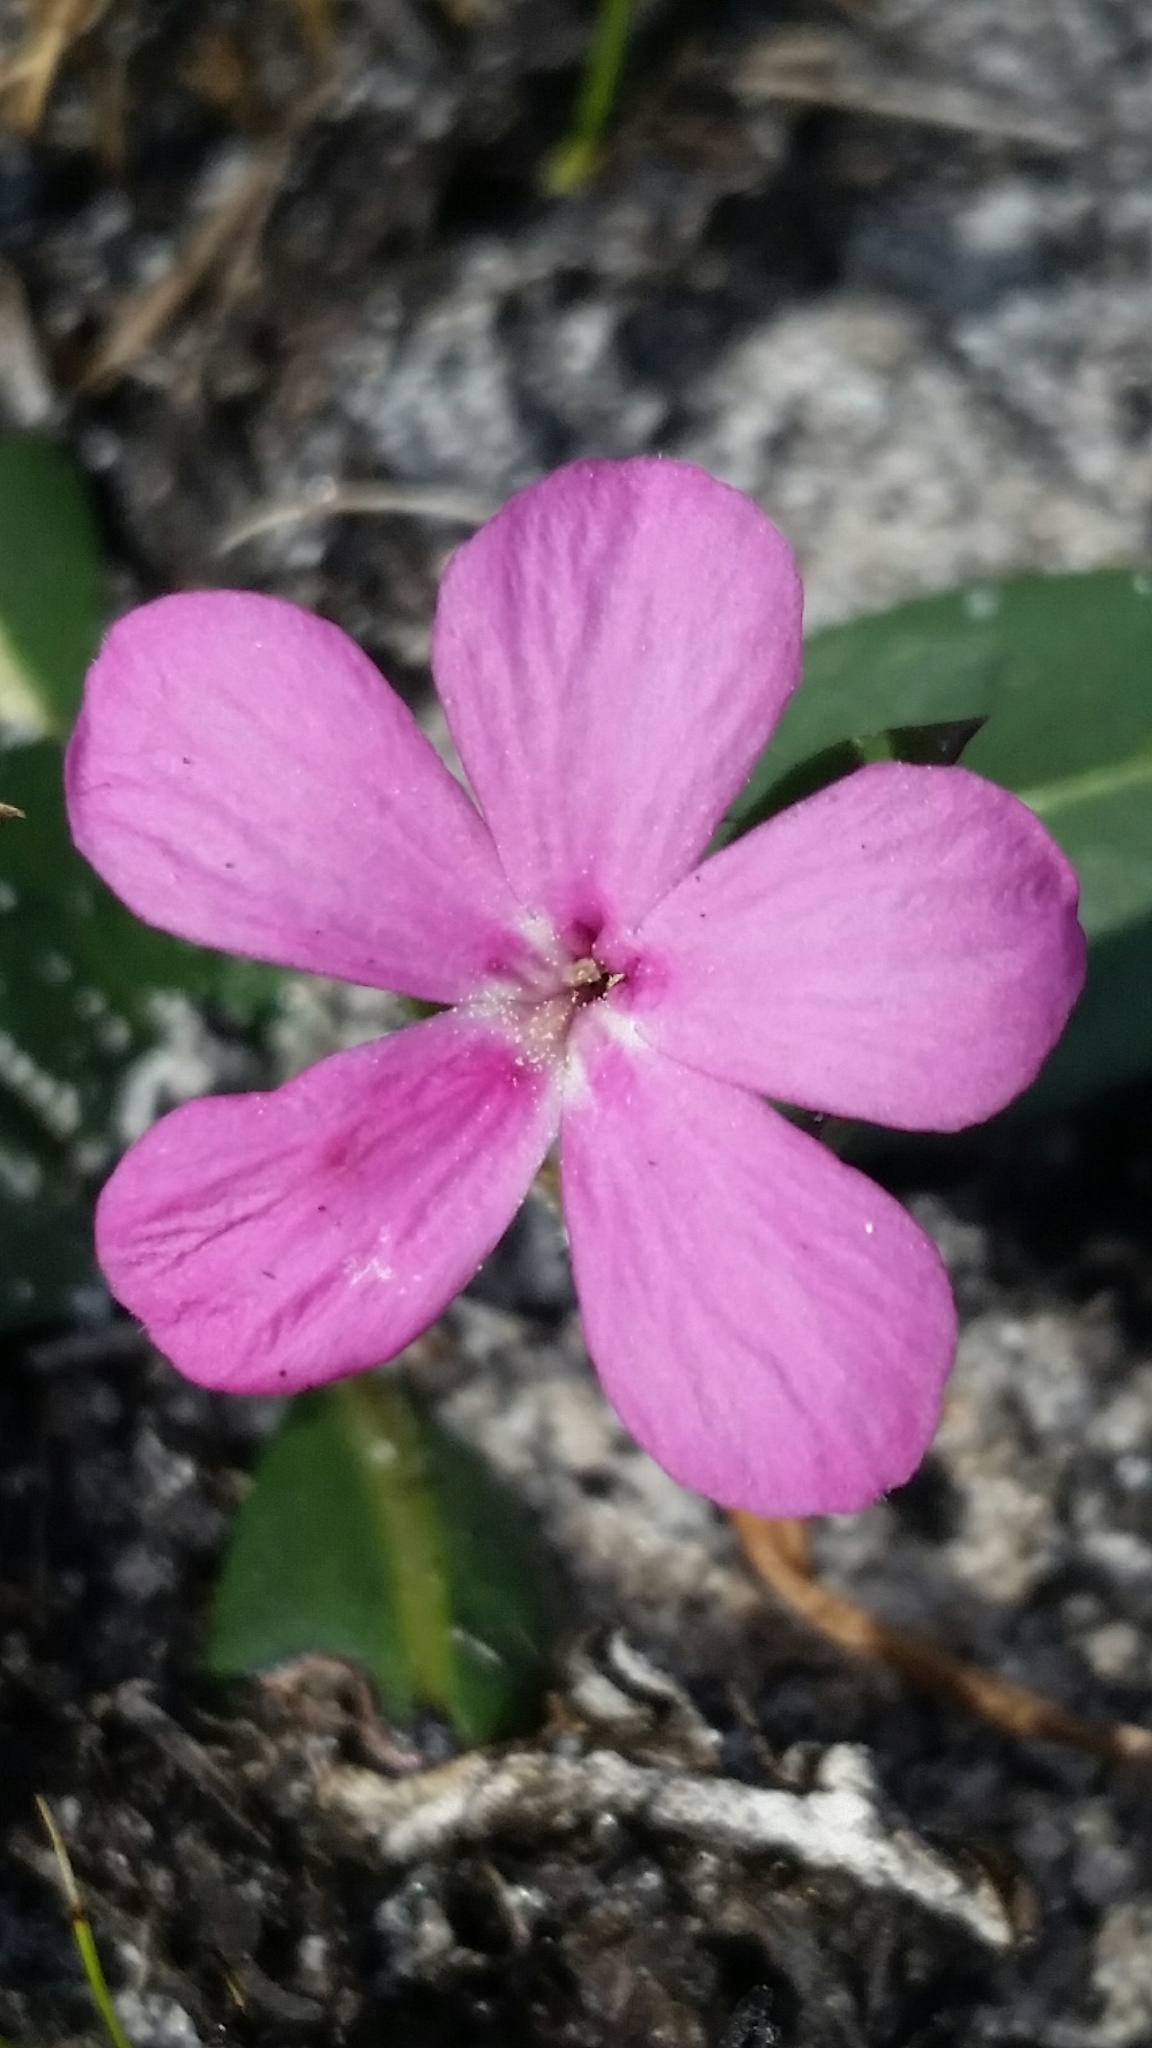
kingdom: Plantae
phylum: Tracheophyta
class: Magnoliopsida
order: Lamiales
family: Acanthaceae
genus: Stenandrium
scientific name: Stenandrium dulce
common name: Pinklet
